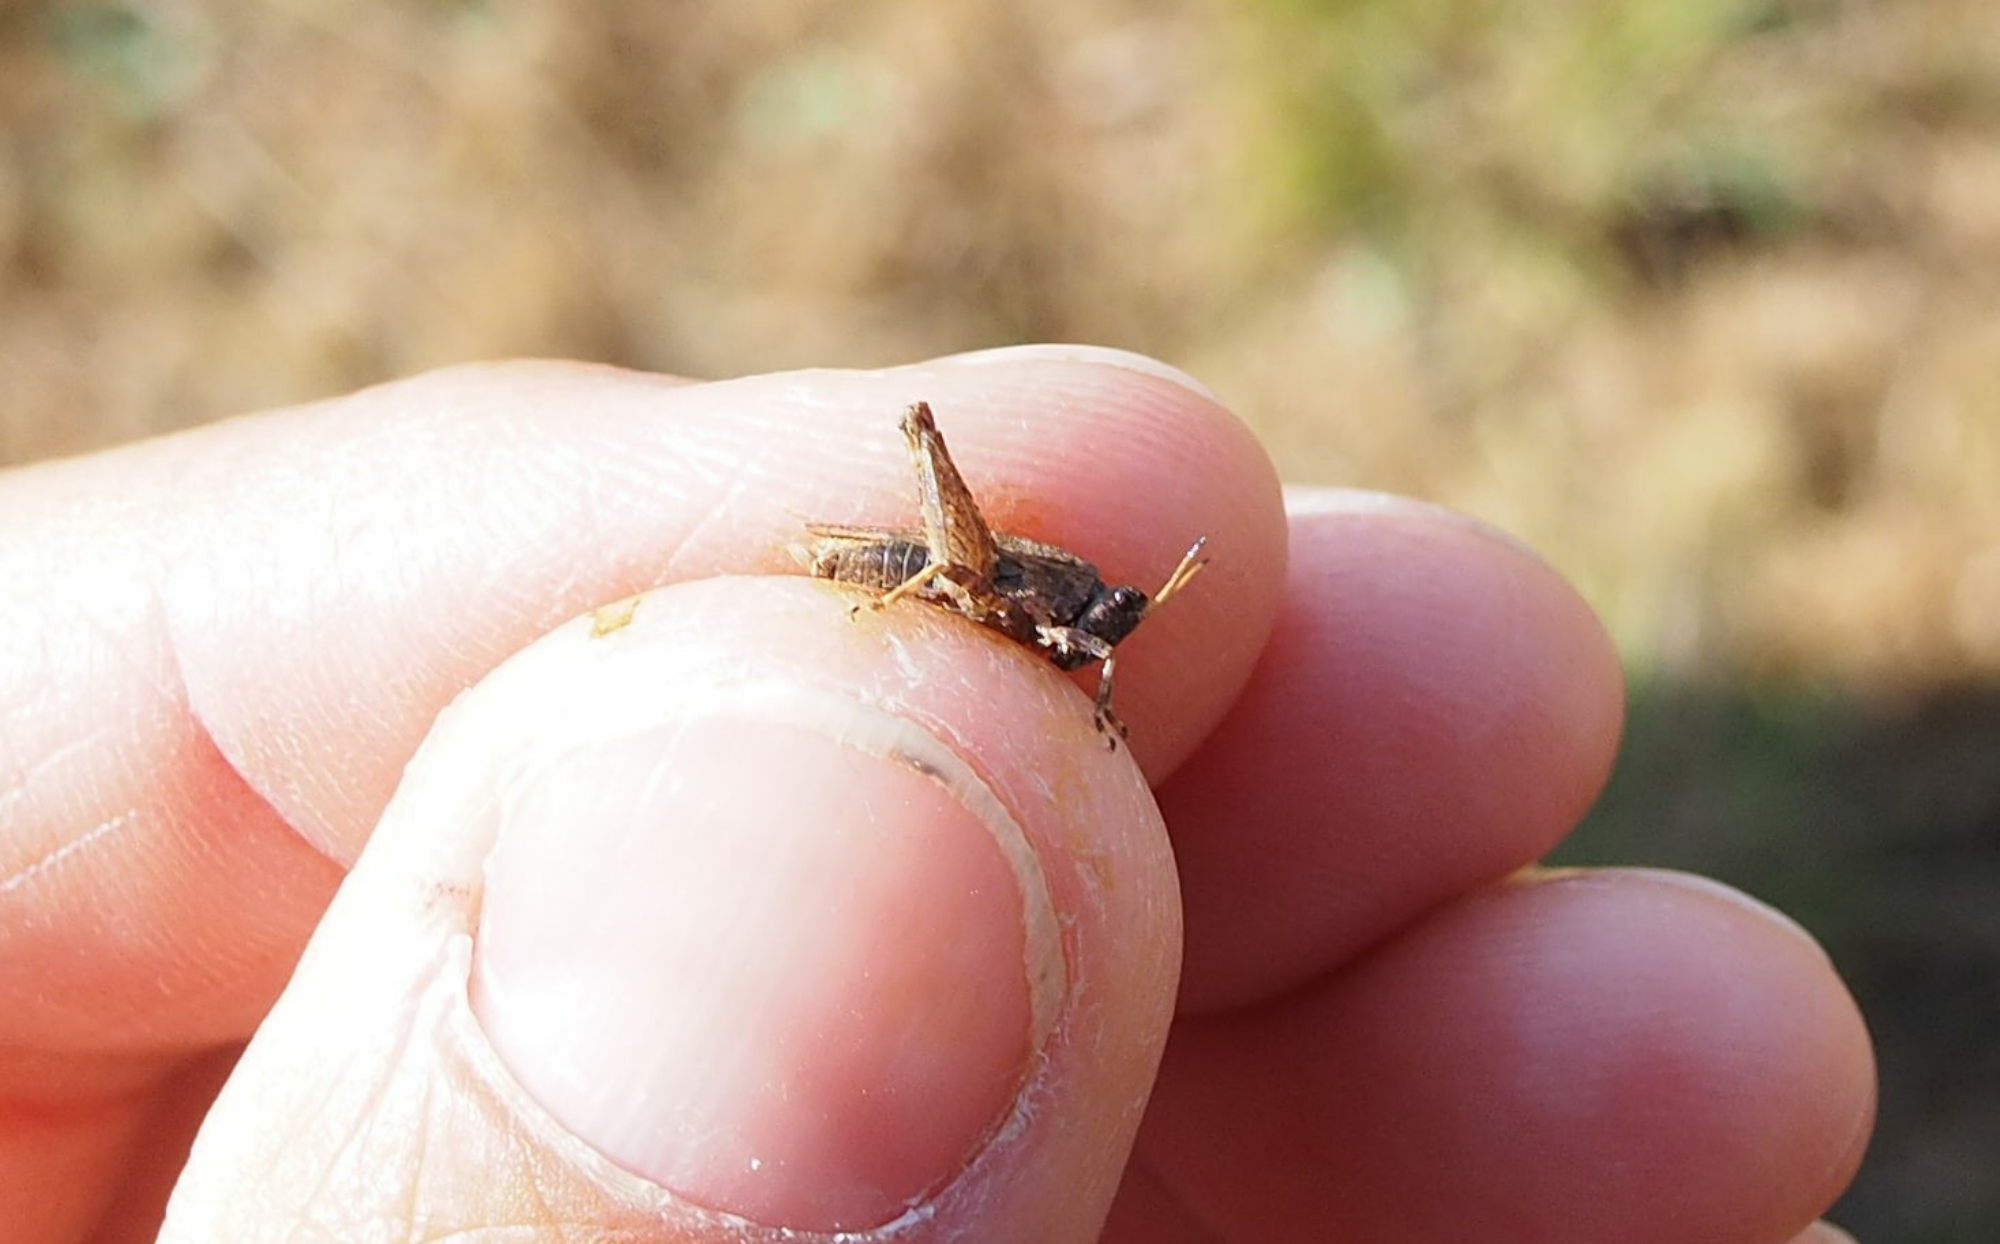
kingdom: Animalia
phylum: Arthropoda
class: Insecta
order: Orthoptera
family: Tetrigidae
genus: Tetrix
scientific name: Tetrix undulata
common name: Common groundhopper
